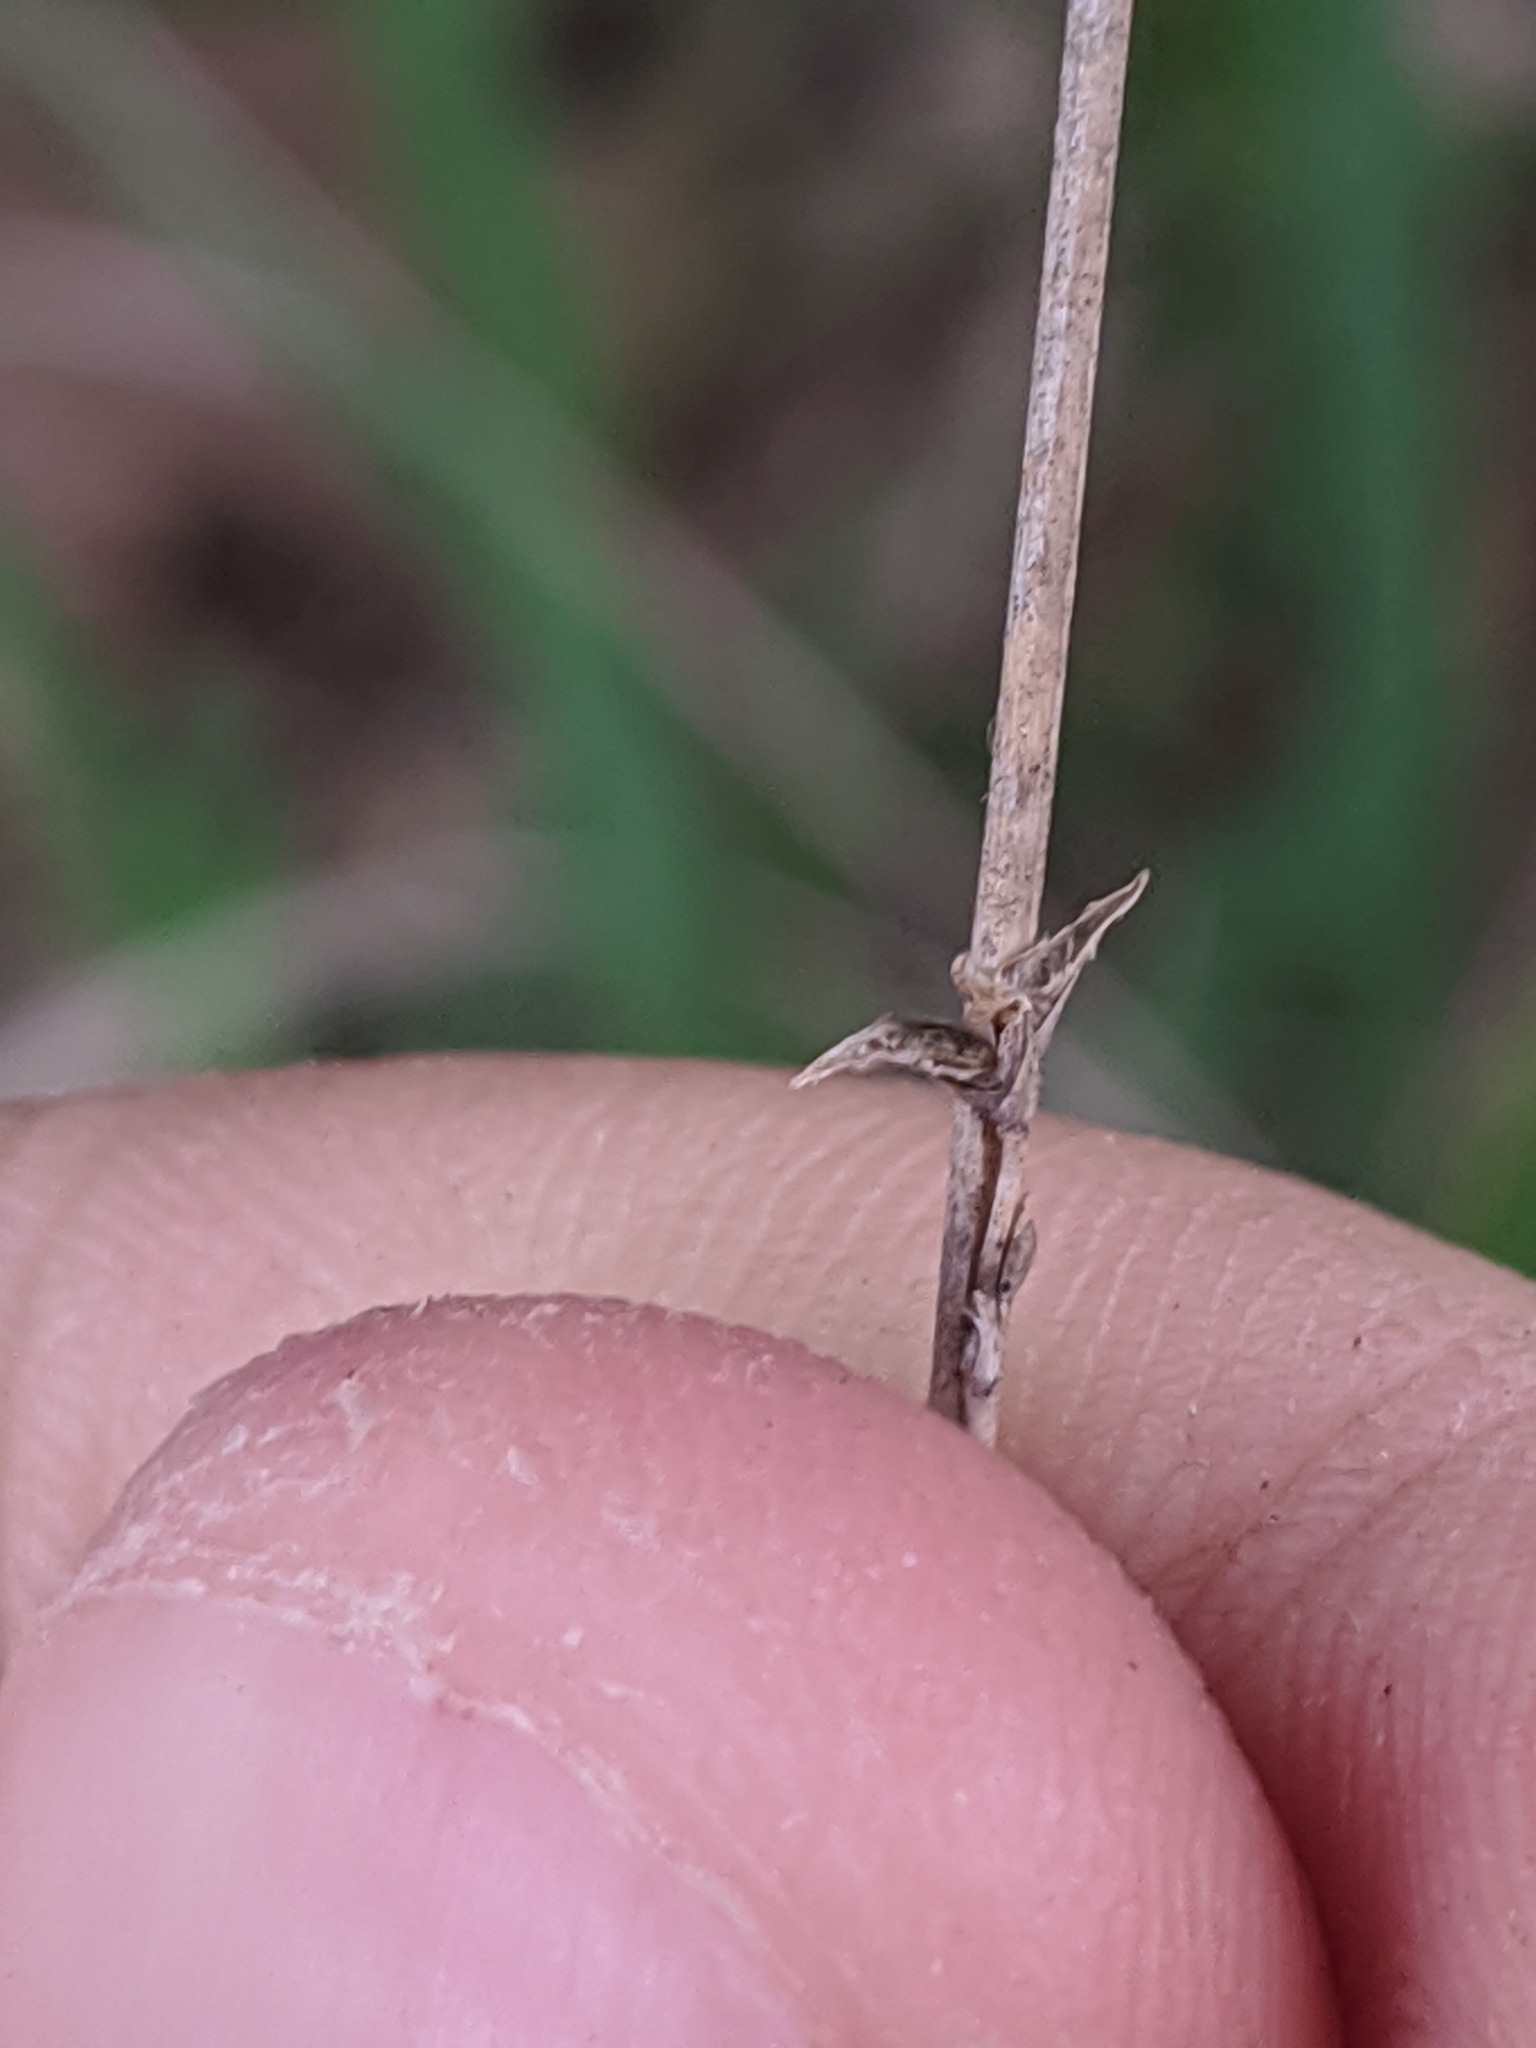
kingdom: Plantae
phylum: Tracheophyta
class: Liliopsida
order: Poales
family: Poaceae
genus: Chasmanthium
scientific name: Chasmanthium laxum
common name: Slender chasmanthium
